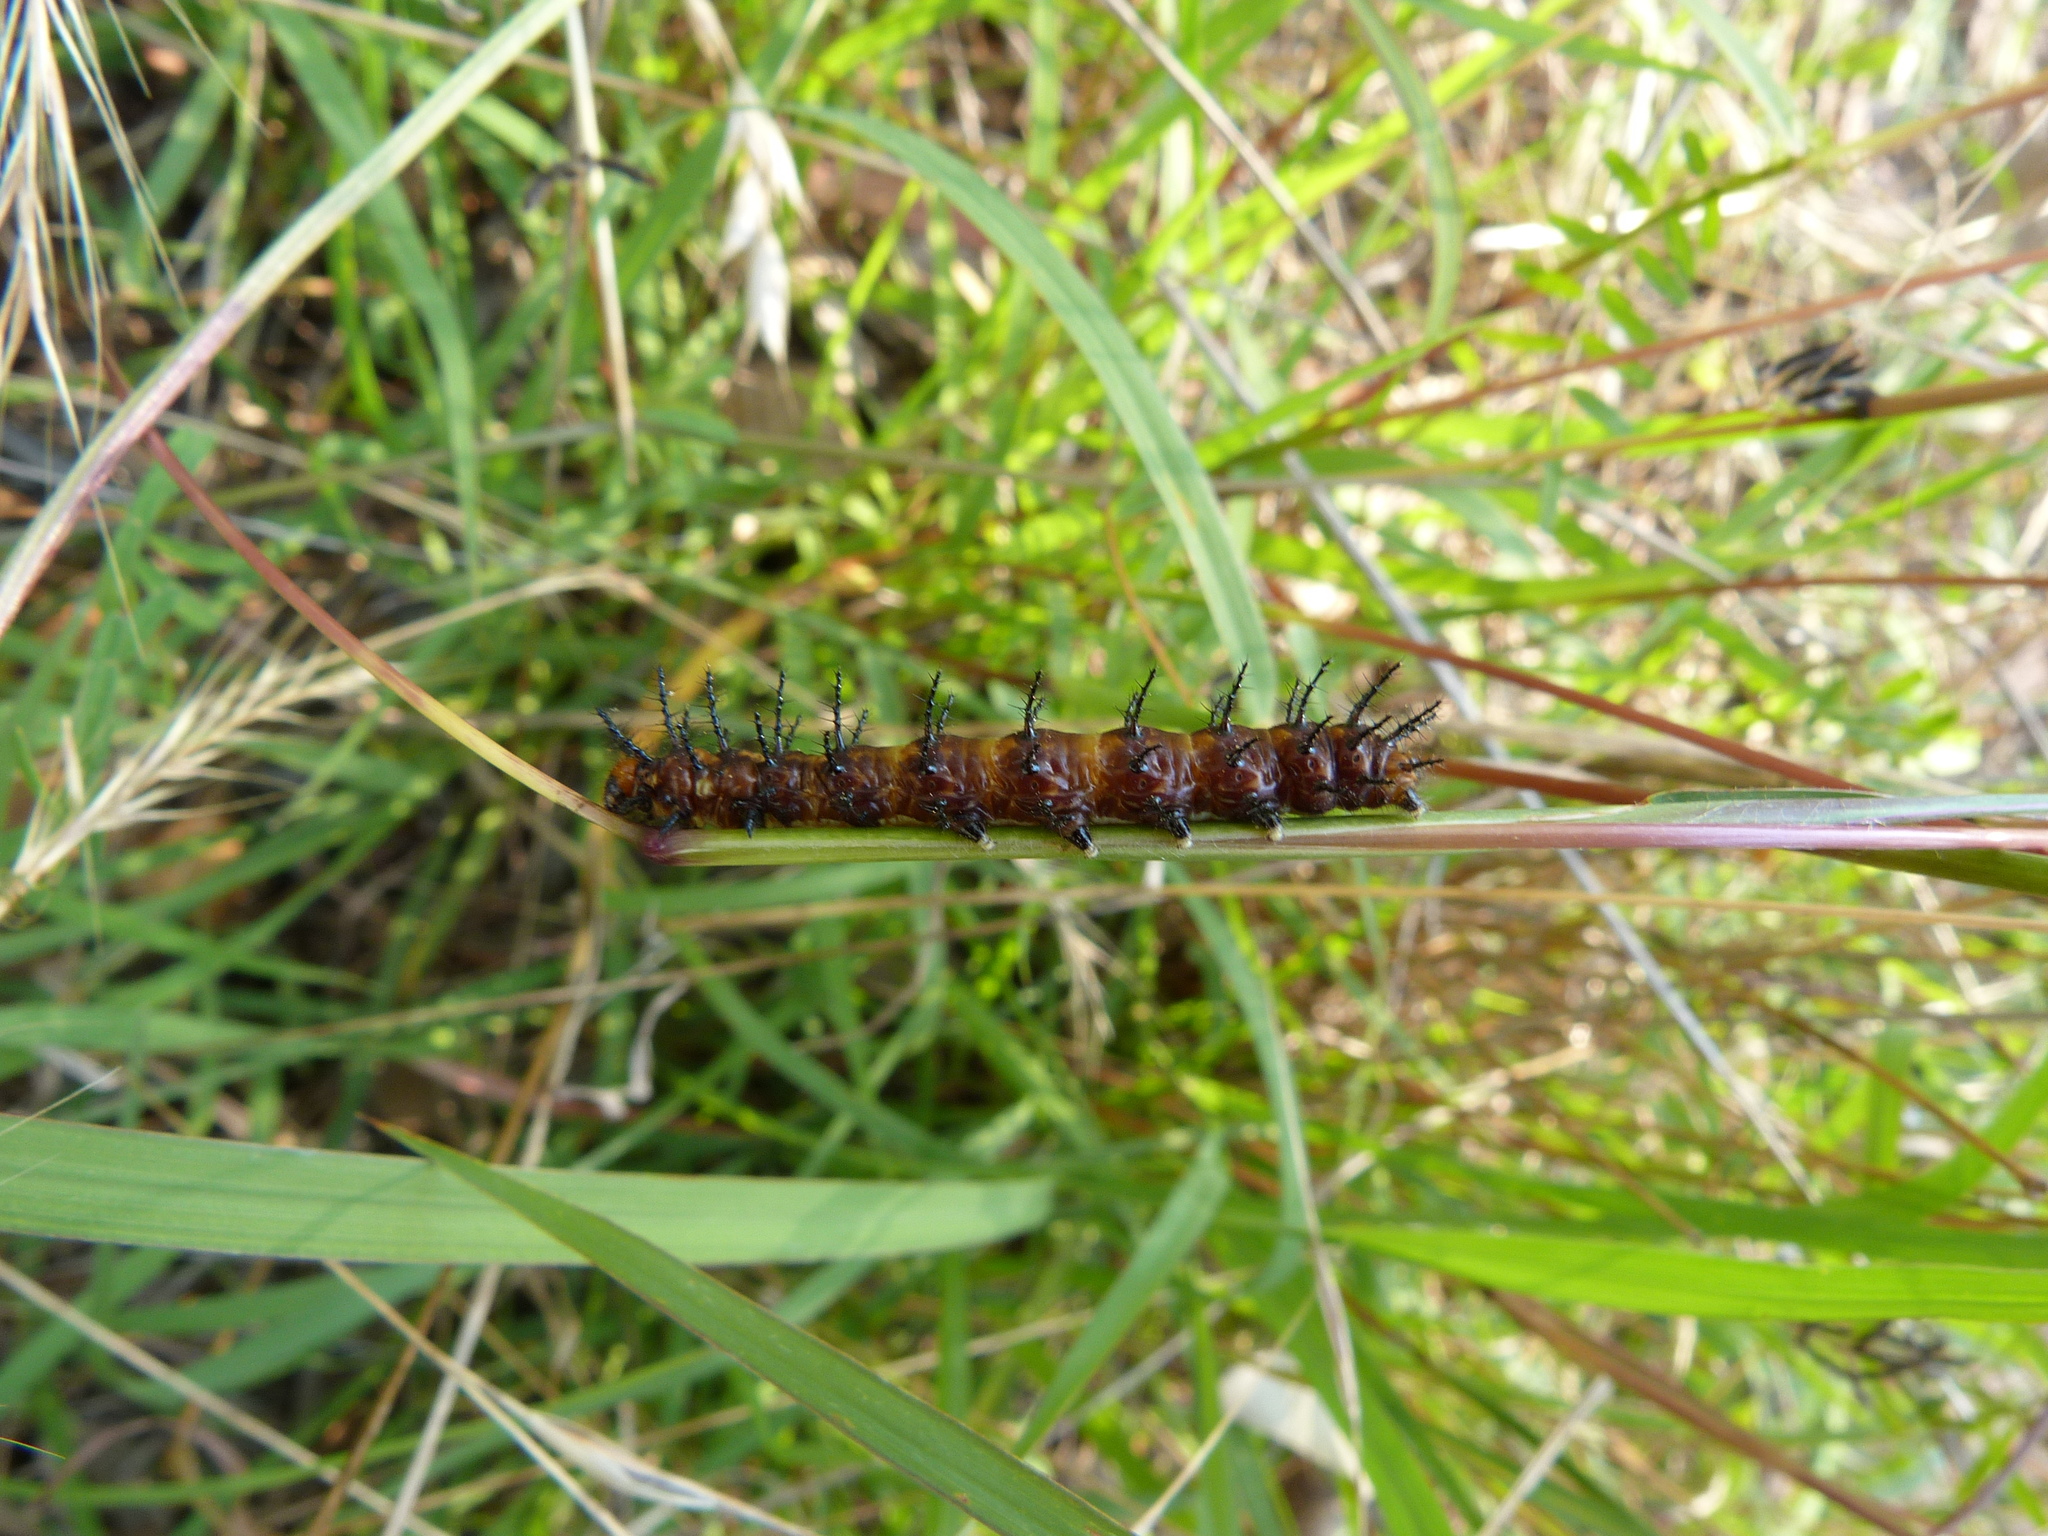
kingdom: Animalia
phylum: Arthropoda
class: Insecta
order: Lepidoptera
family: Nymphalidae
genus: Acraea
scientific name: Acraea andromacha
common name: Glasswing
